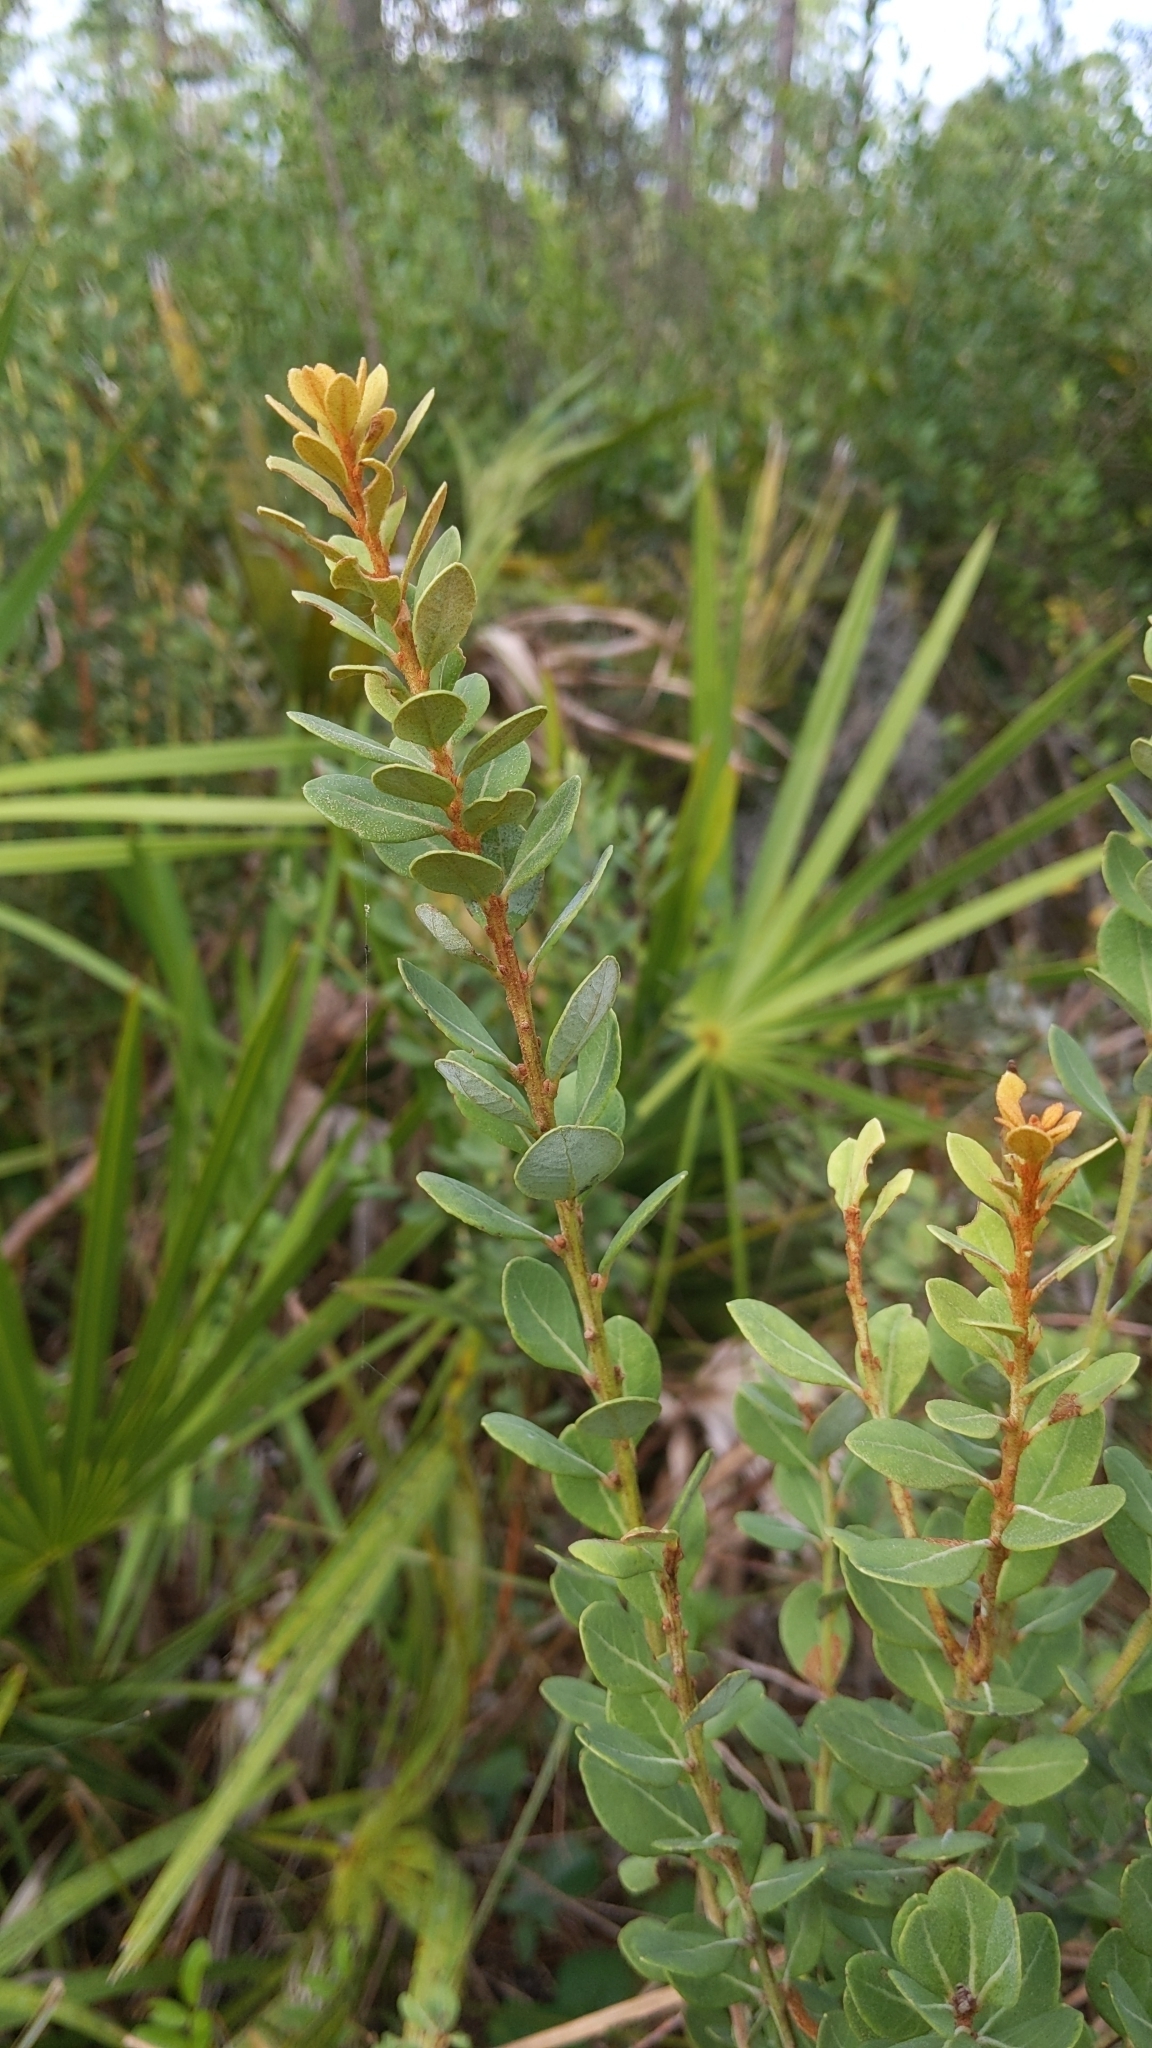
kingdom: Plantae
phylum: Tracheophyta
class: Magnoliopsida
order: Ericales
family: Ericaceae
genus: Lyonia
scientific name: Lyonia fruticosa
